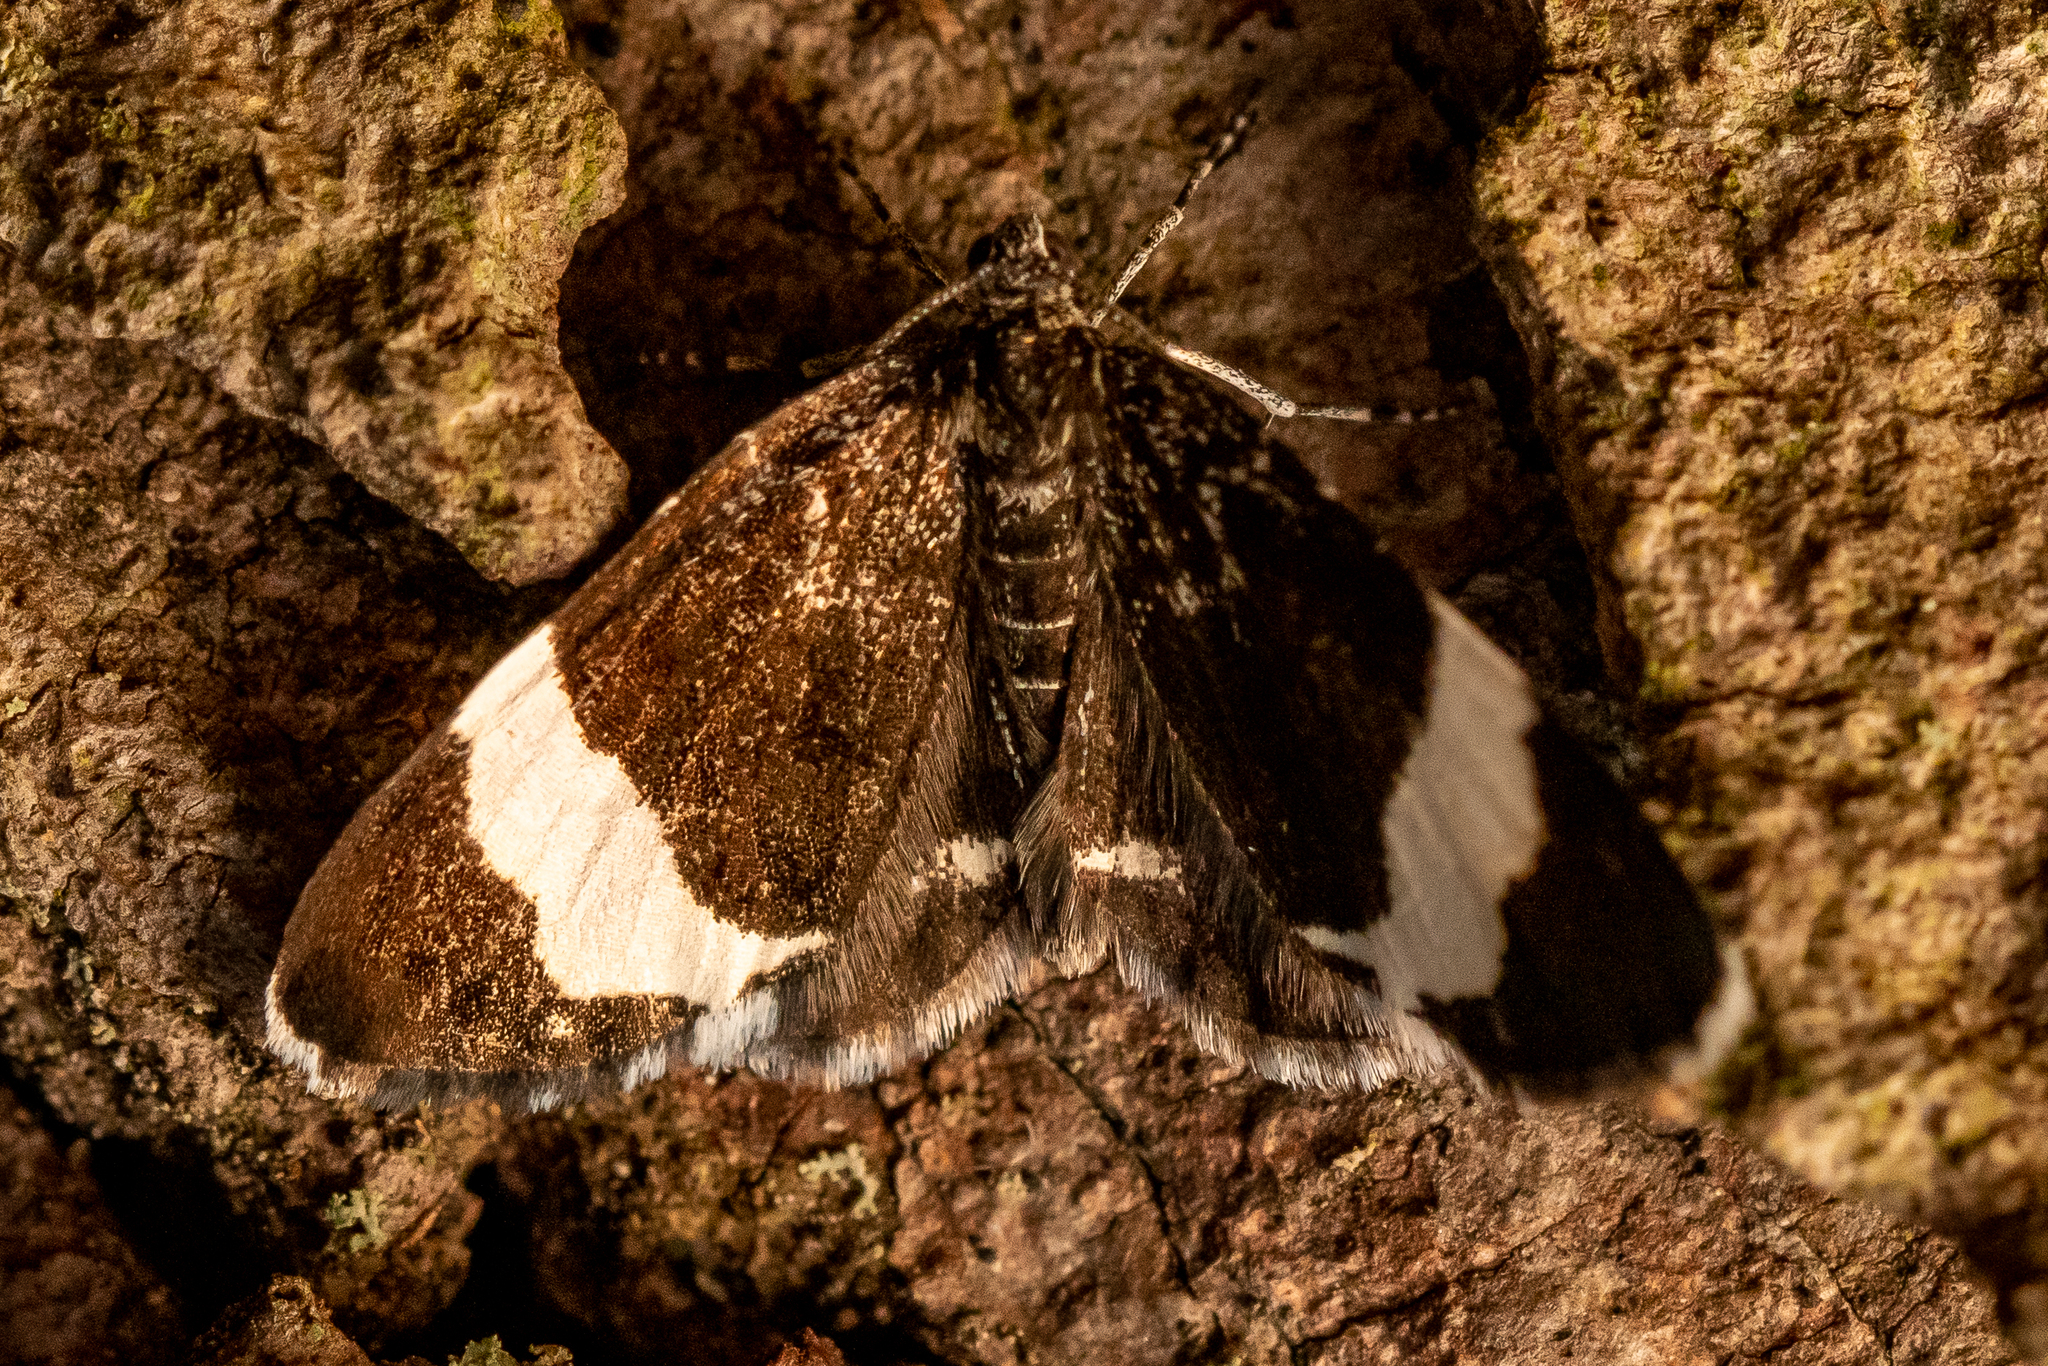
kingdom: Animalia
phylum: Arthropoda
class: Insecta
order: Lepidoptera
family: Geometridae
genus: Trichodezia
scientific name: Trichodezia albovittata
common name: White striped black
